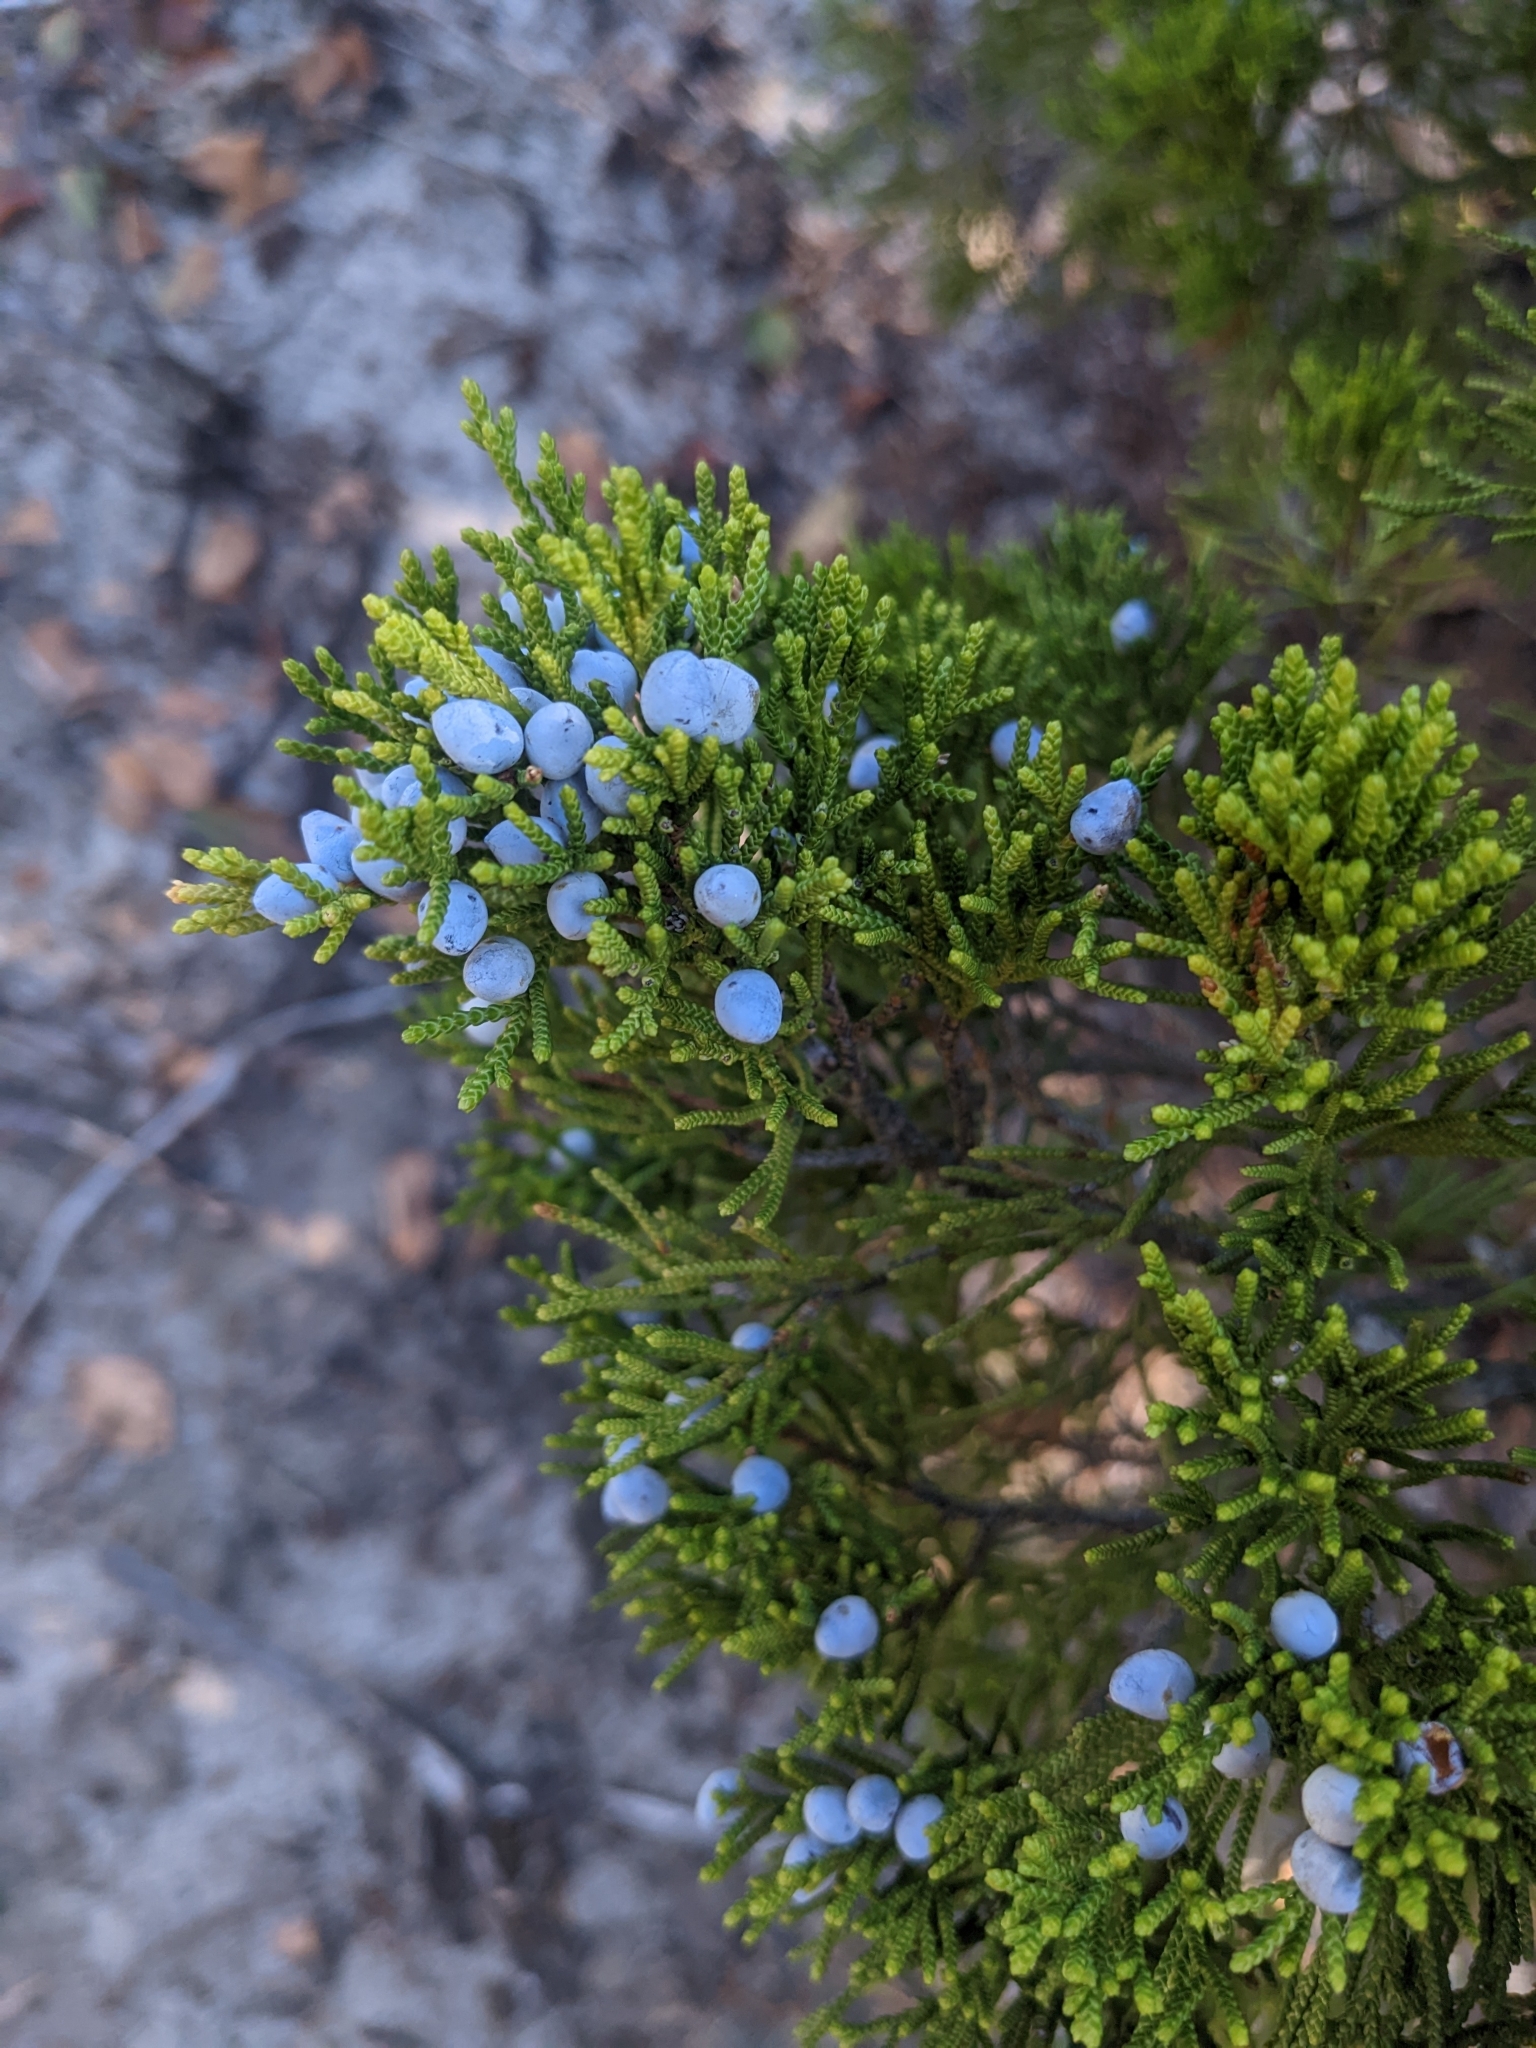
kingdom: Plantae
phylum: Tracheophyta
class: Pinopsida
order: Pinales
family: Cupressaceae
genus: Juniperus
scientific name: Juniperus virginiana
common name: Red juniper
